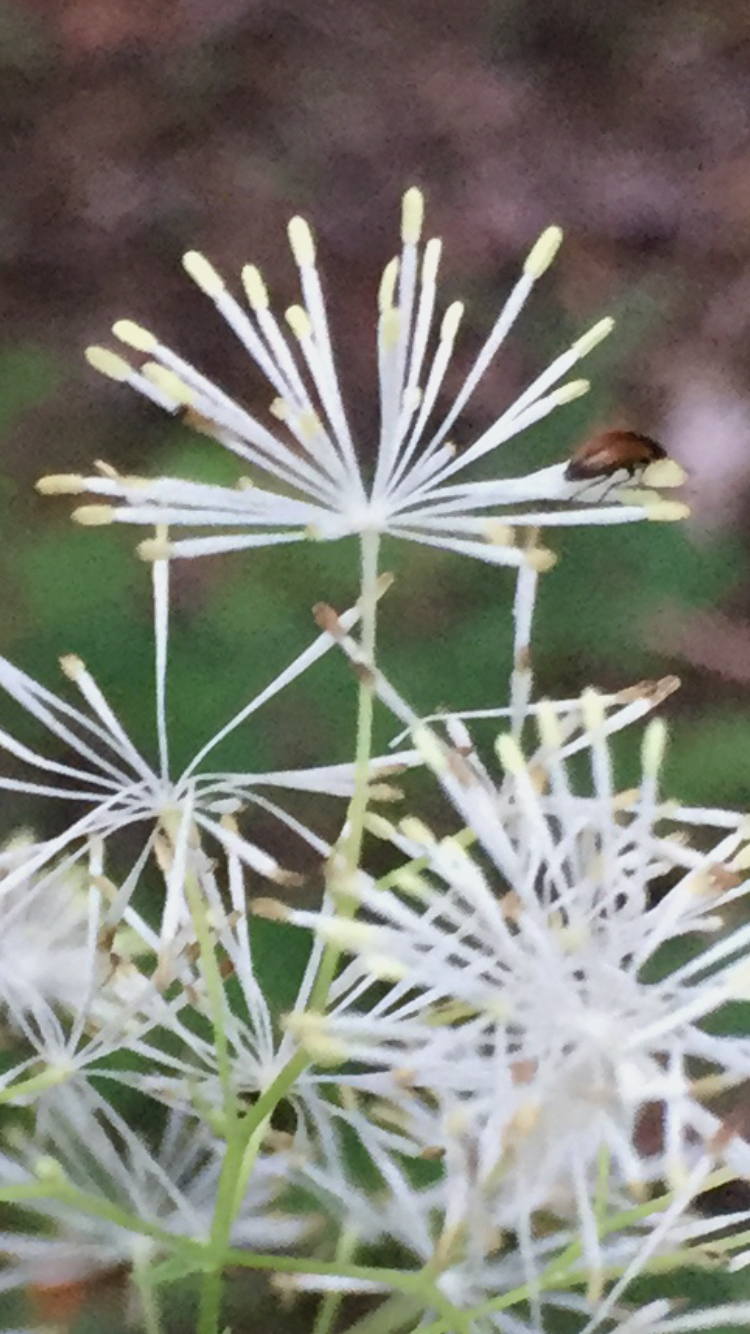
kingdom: Plantae
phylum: Tracheophyta
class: Magnoliopsida
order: Ranunculales
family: Ranunculaceae
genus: Thalictrum
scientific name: Thalictrum pubescens
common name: King-of-the-meadow
